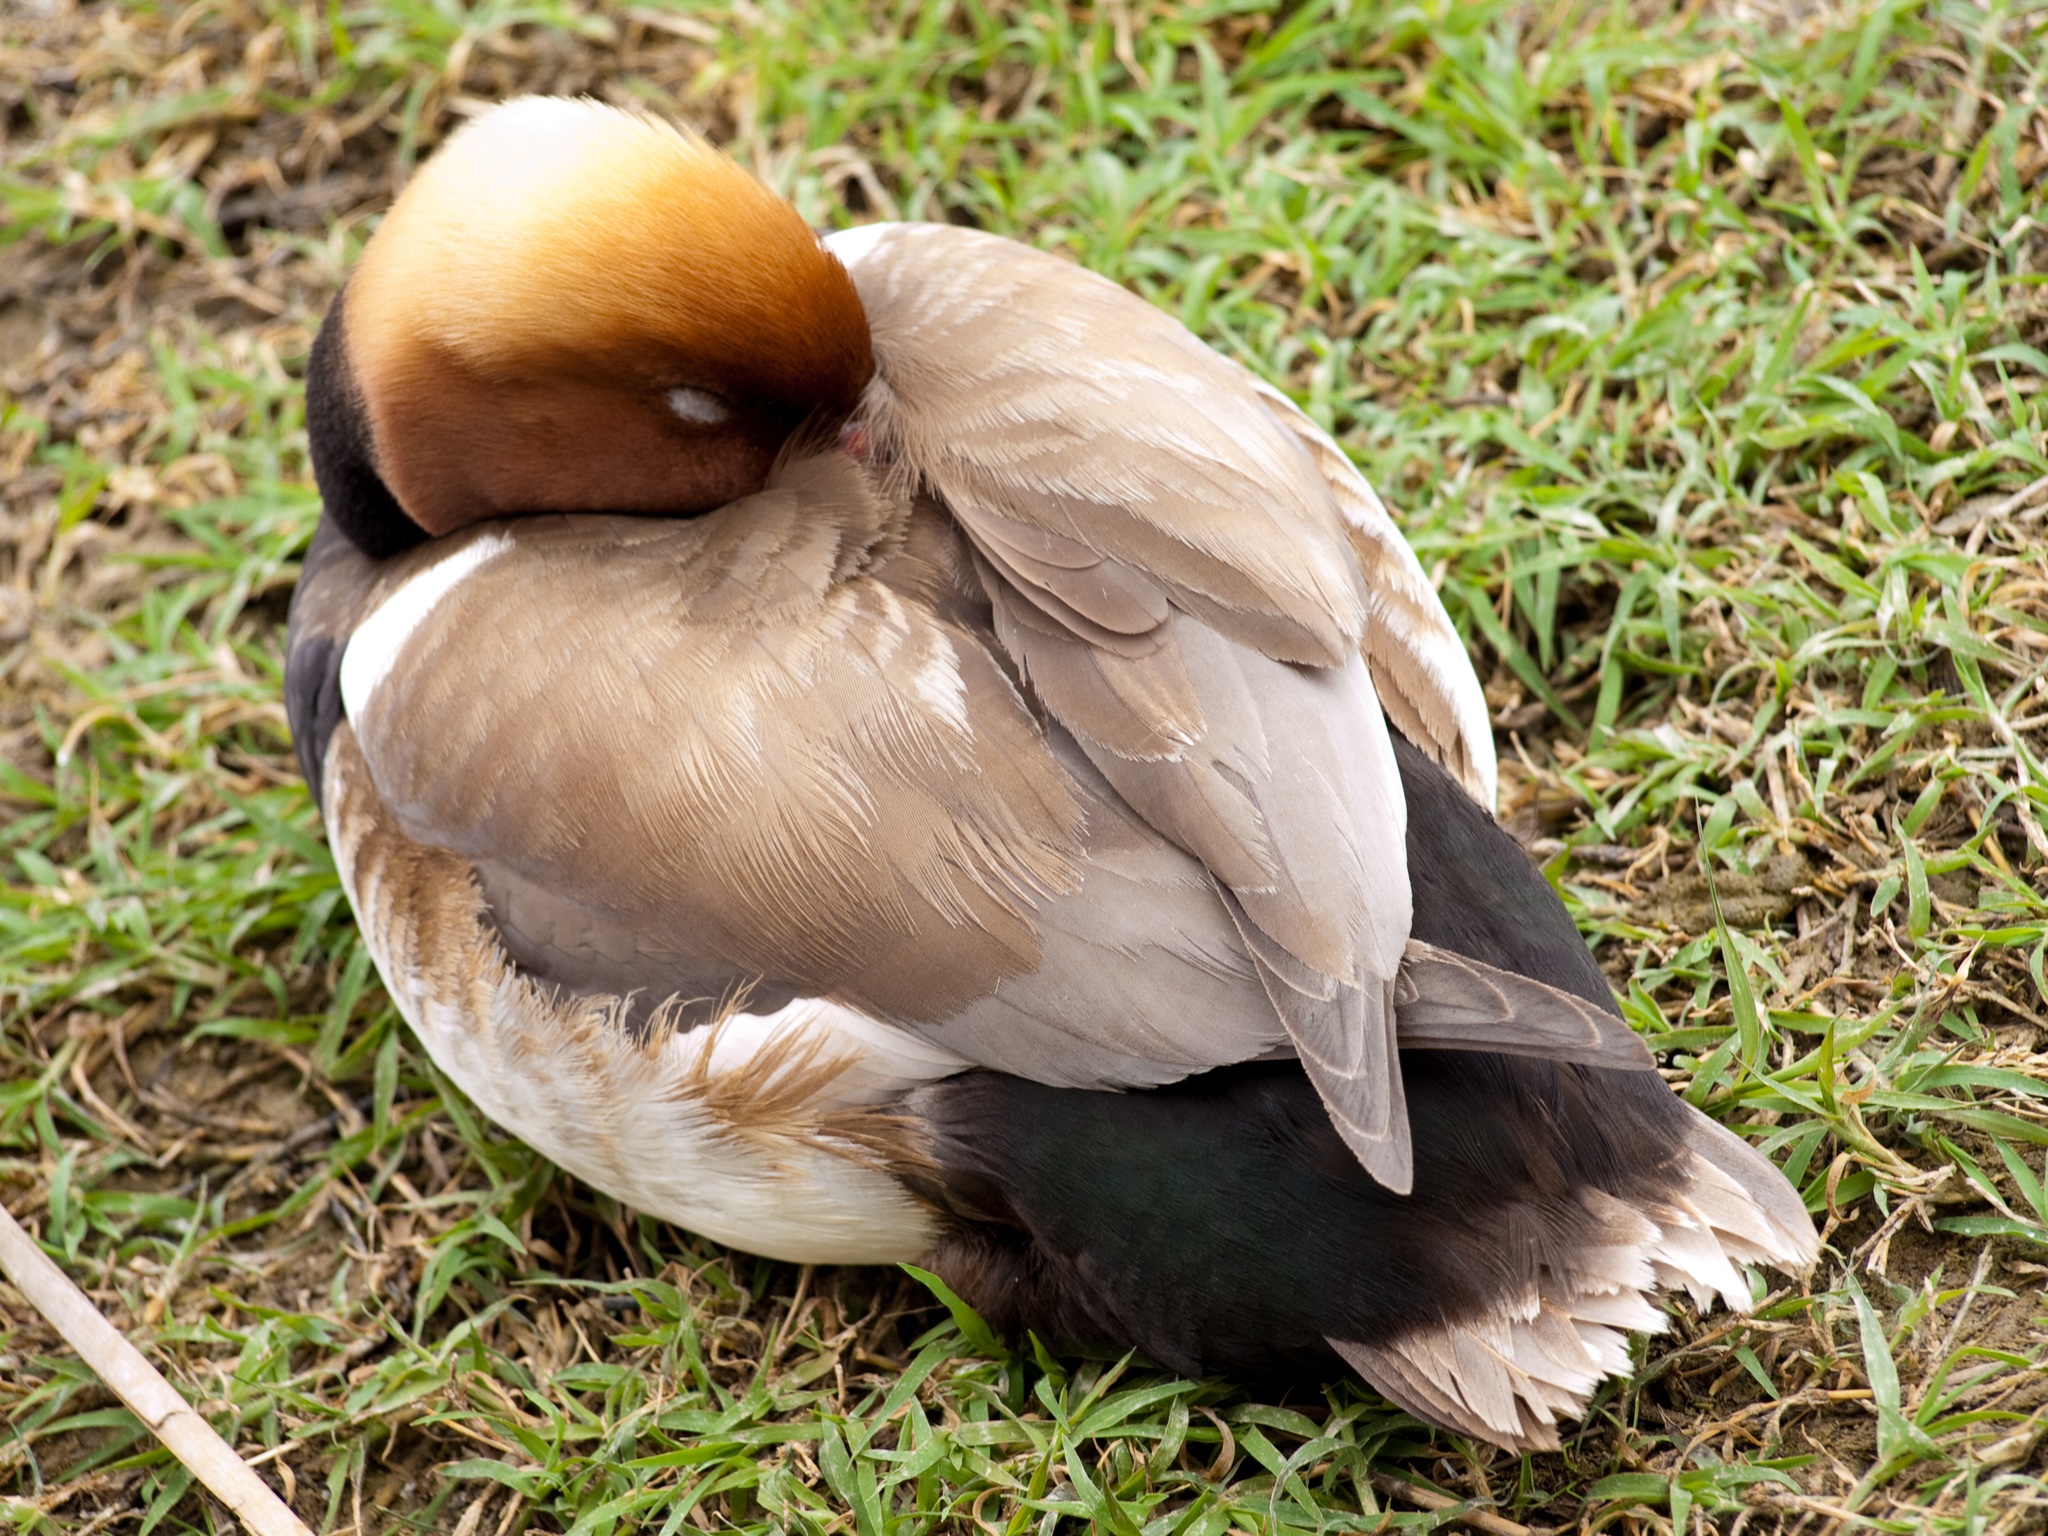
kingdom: Animalia
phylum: Chordata
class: Aves
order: Anseriformes
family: Anatidae
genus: Netta
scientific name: Netta rufina
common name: Red-crested pochard
